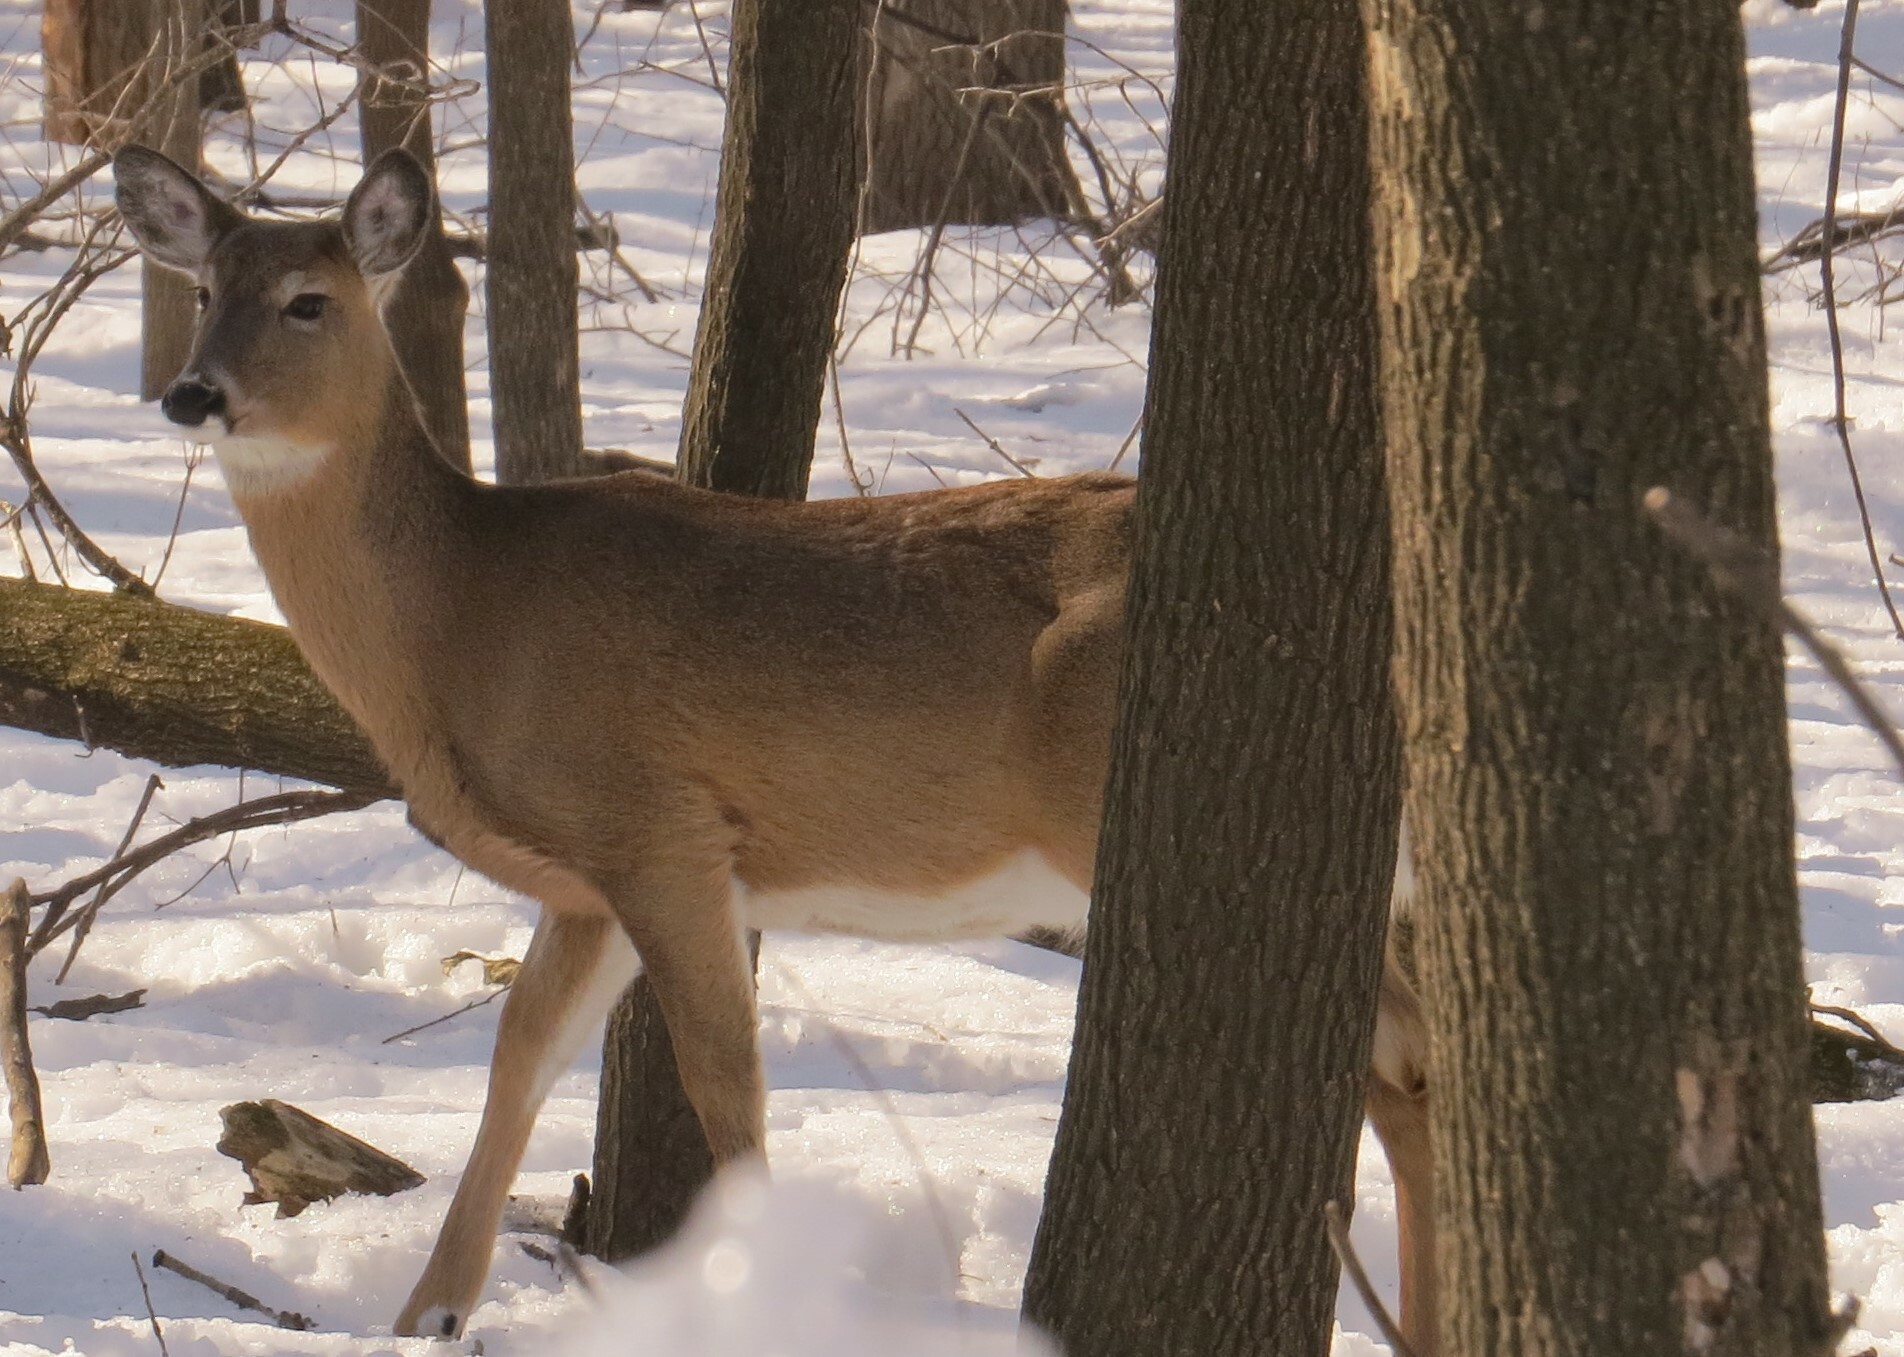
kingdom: Animalia
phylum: Chordata
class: Mammalia
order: Artiodactyla
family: Cervidae
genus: Odocoileus
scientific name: Odocoileus virginianus
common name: White-tailed deer
